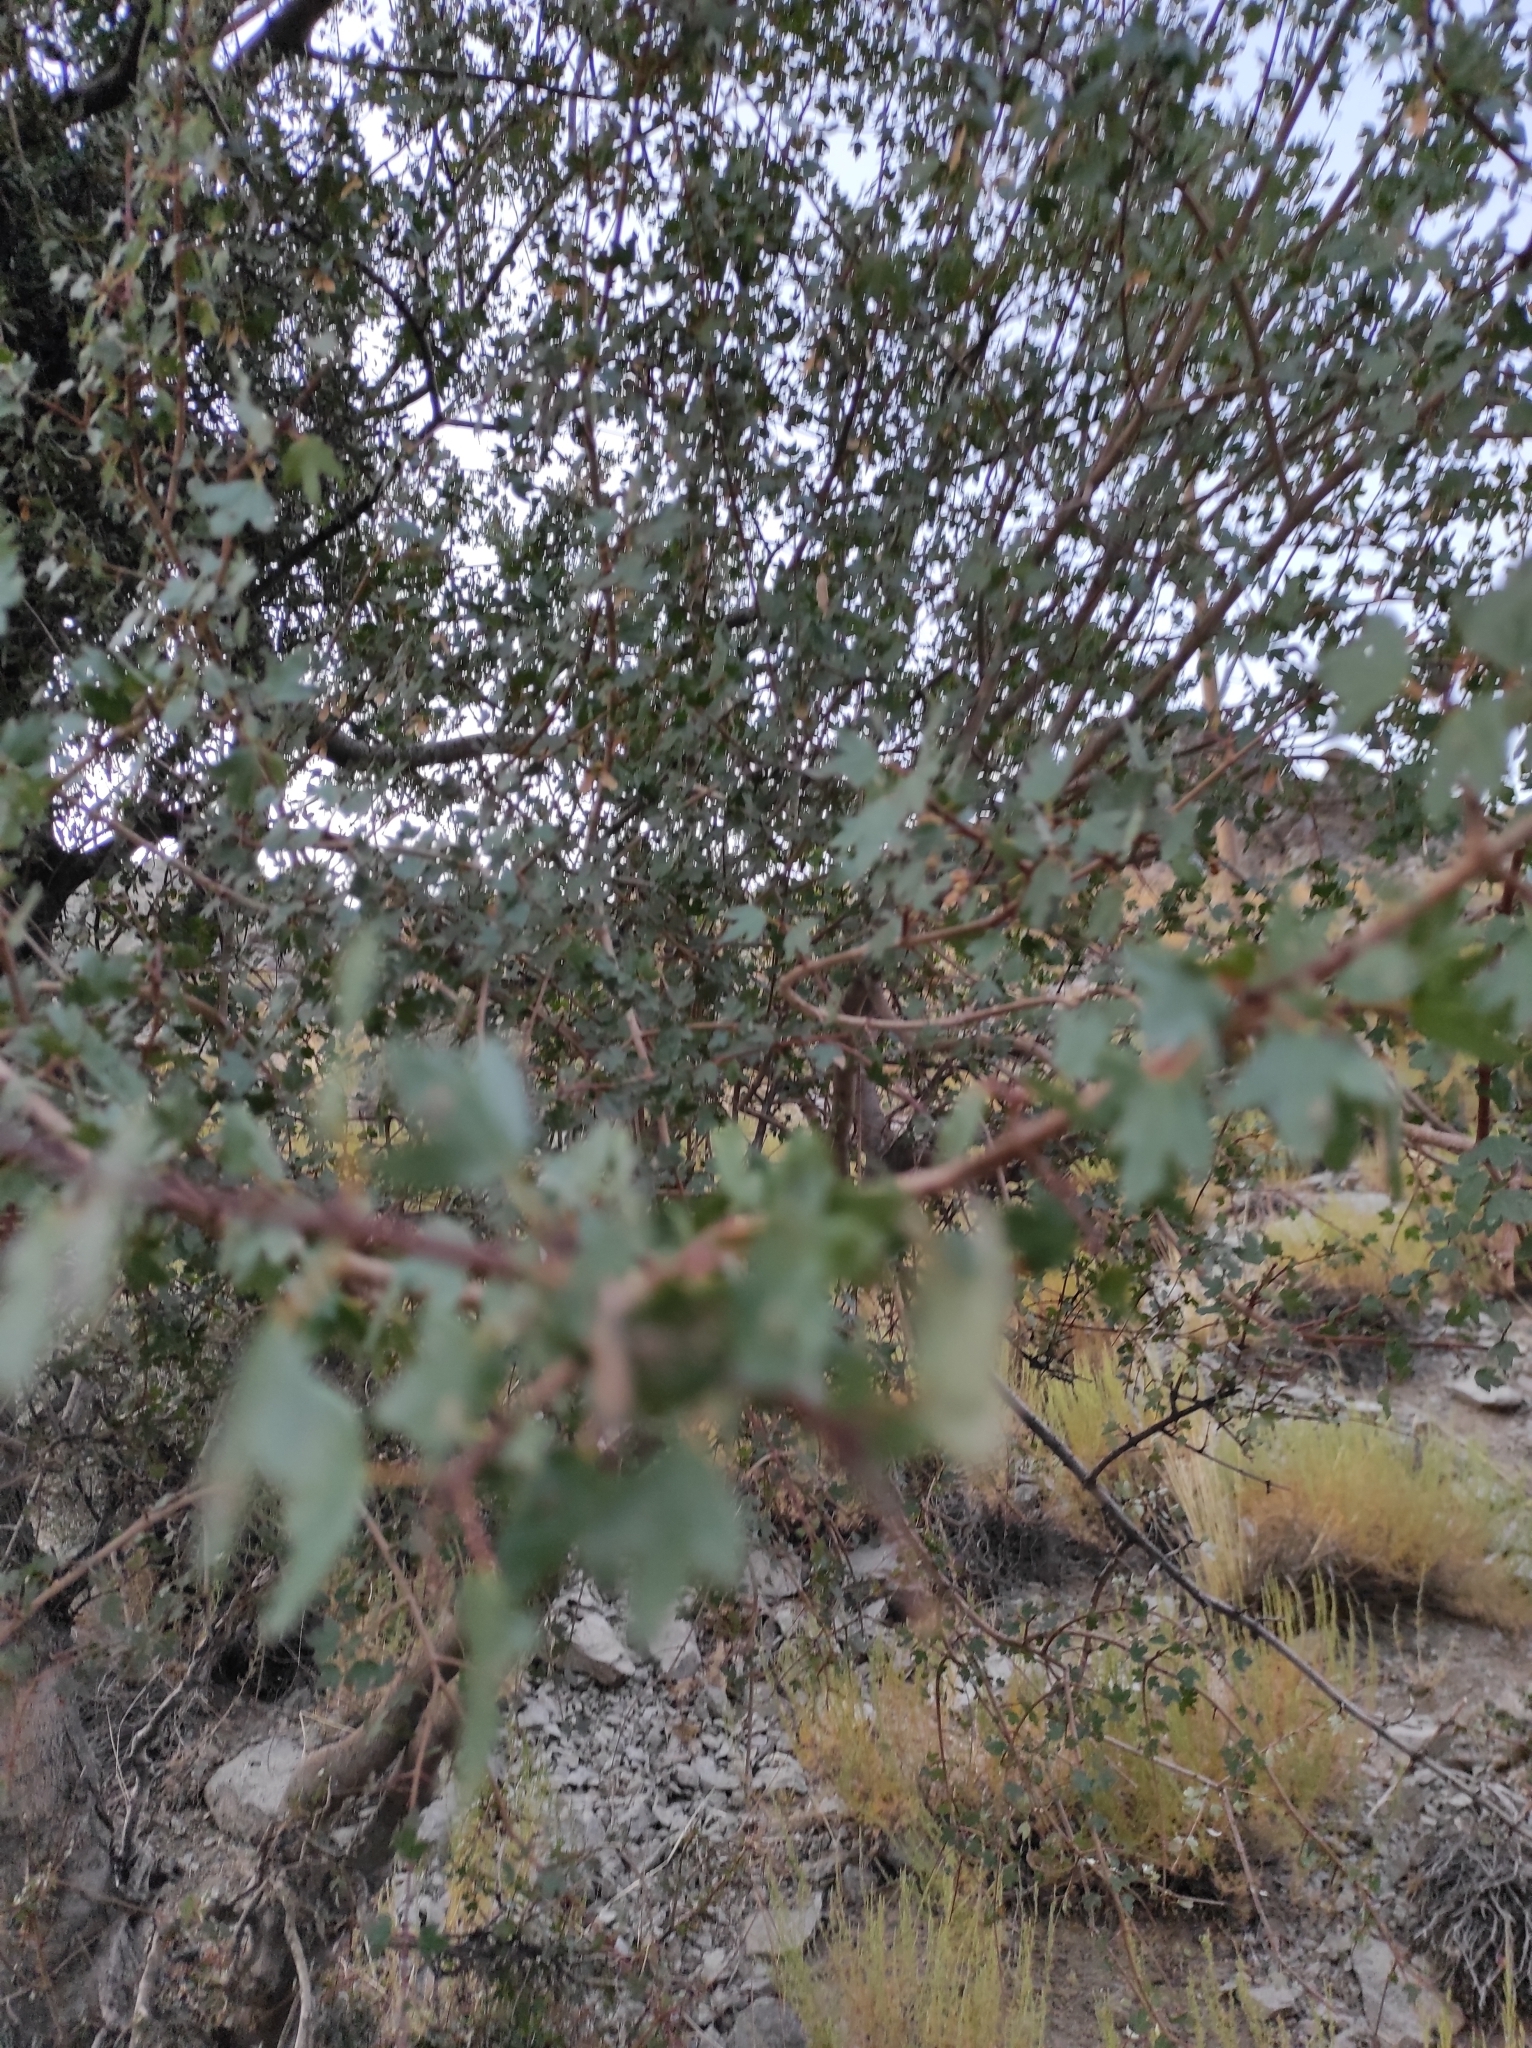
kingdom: Plantae
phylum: Tracheophyta
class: Magnoliopsida
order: Sapindales
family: Sapindaceae
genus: Acer
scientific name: Acer monspessulanum
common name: Montpellier maple
